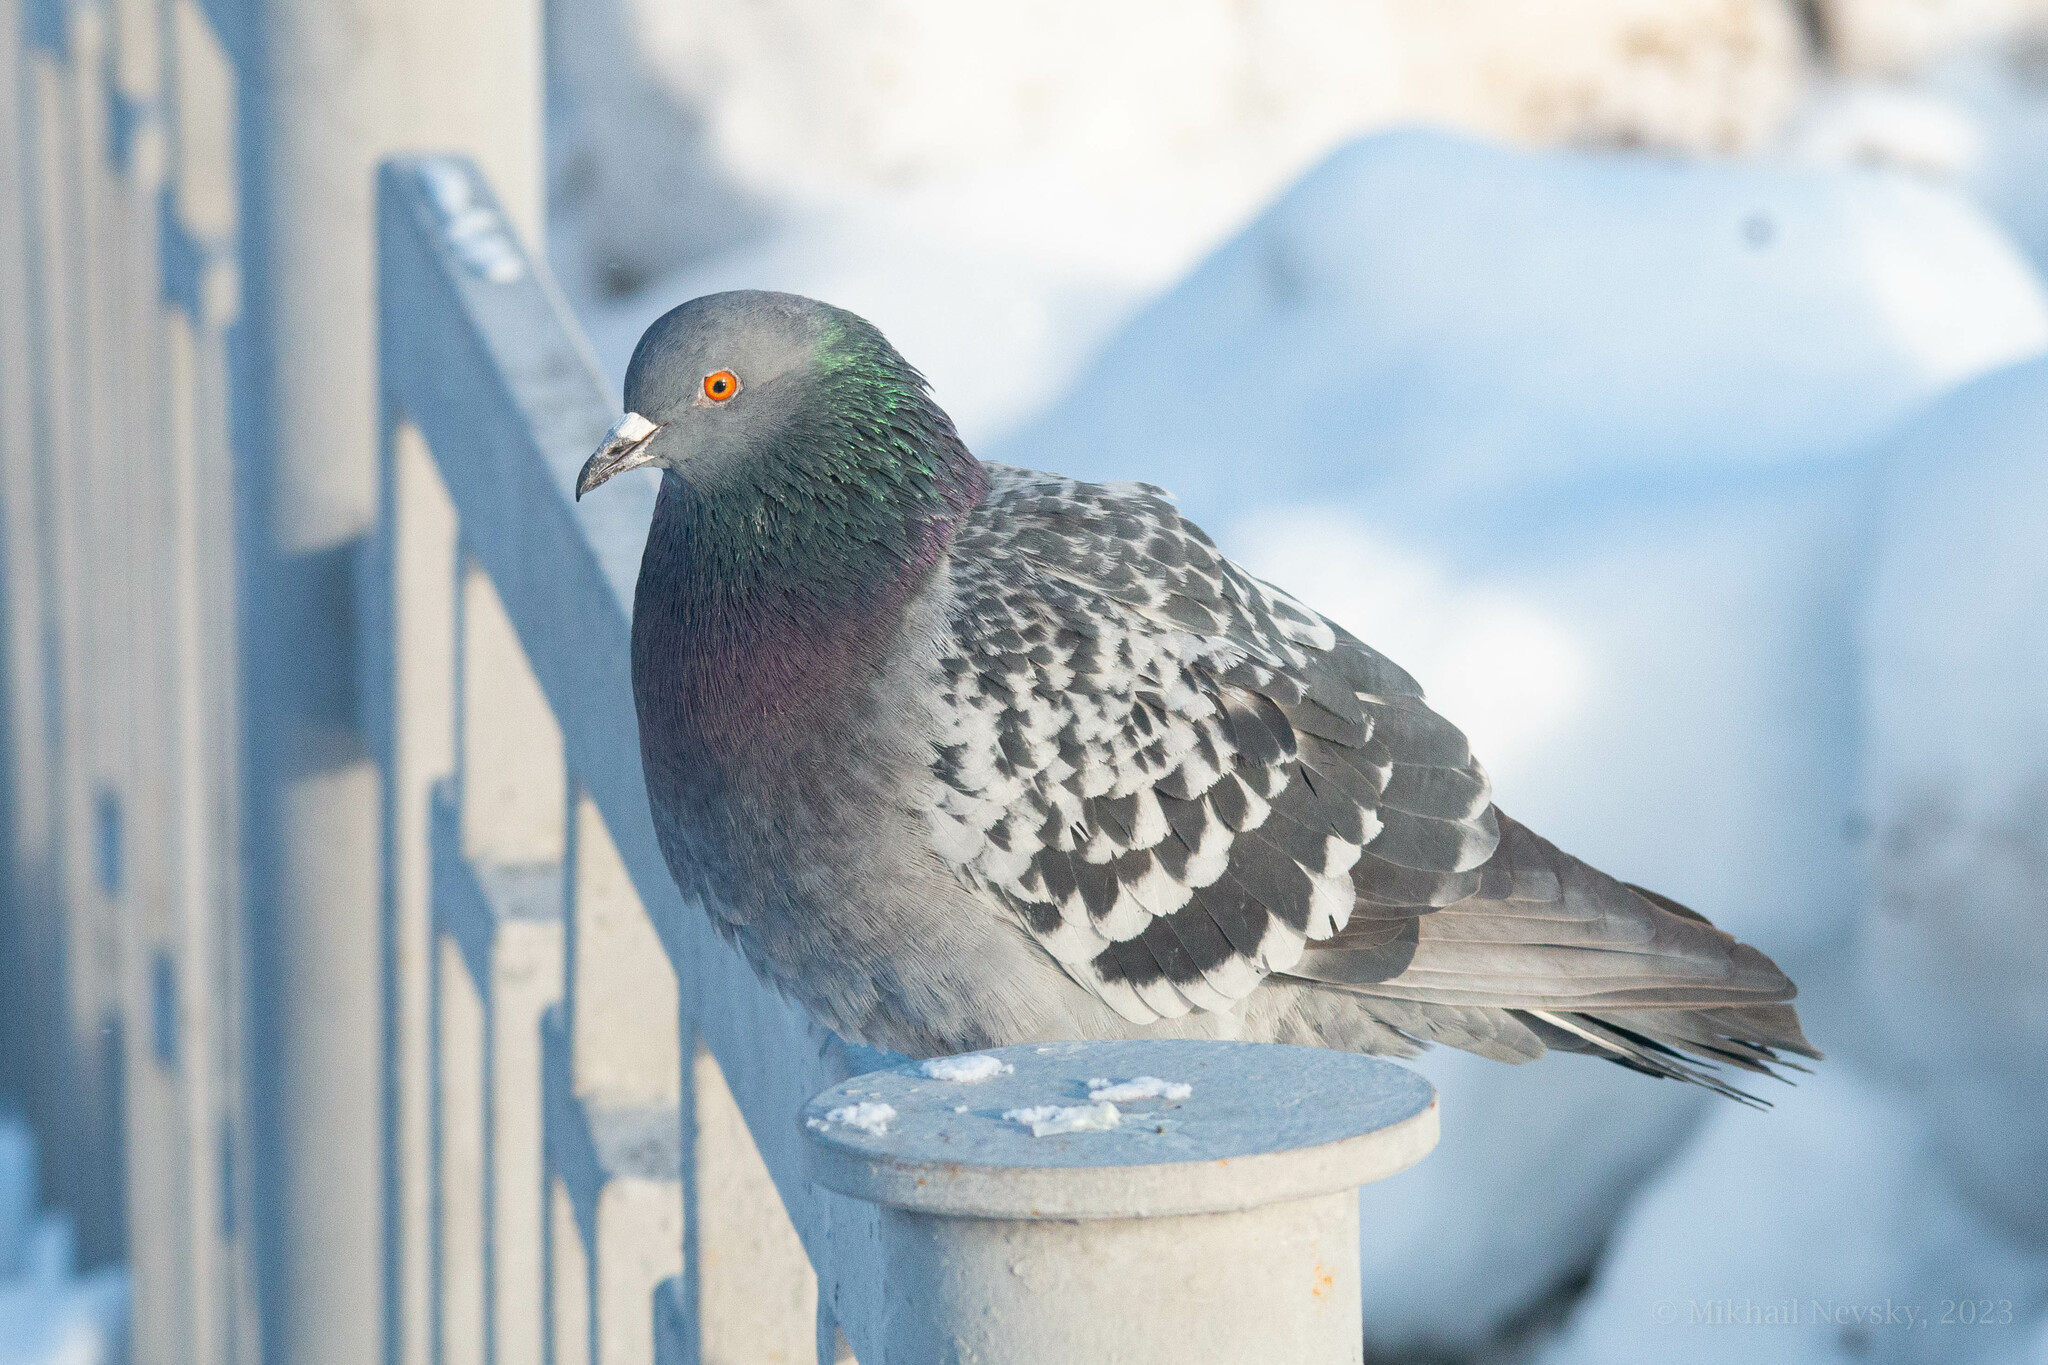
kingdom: Animalia
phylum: Chordata
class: Aves
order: Columbiformes
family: Columbidae
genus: Columba
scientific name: Columba livia
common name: Rock pigeon
